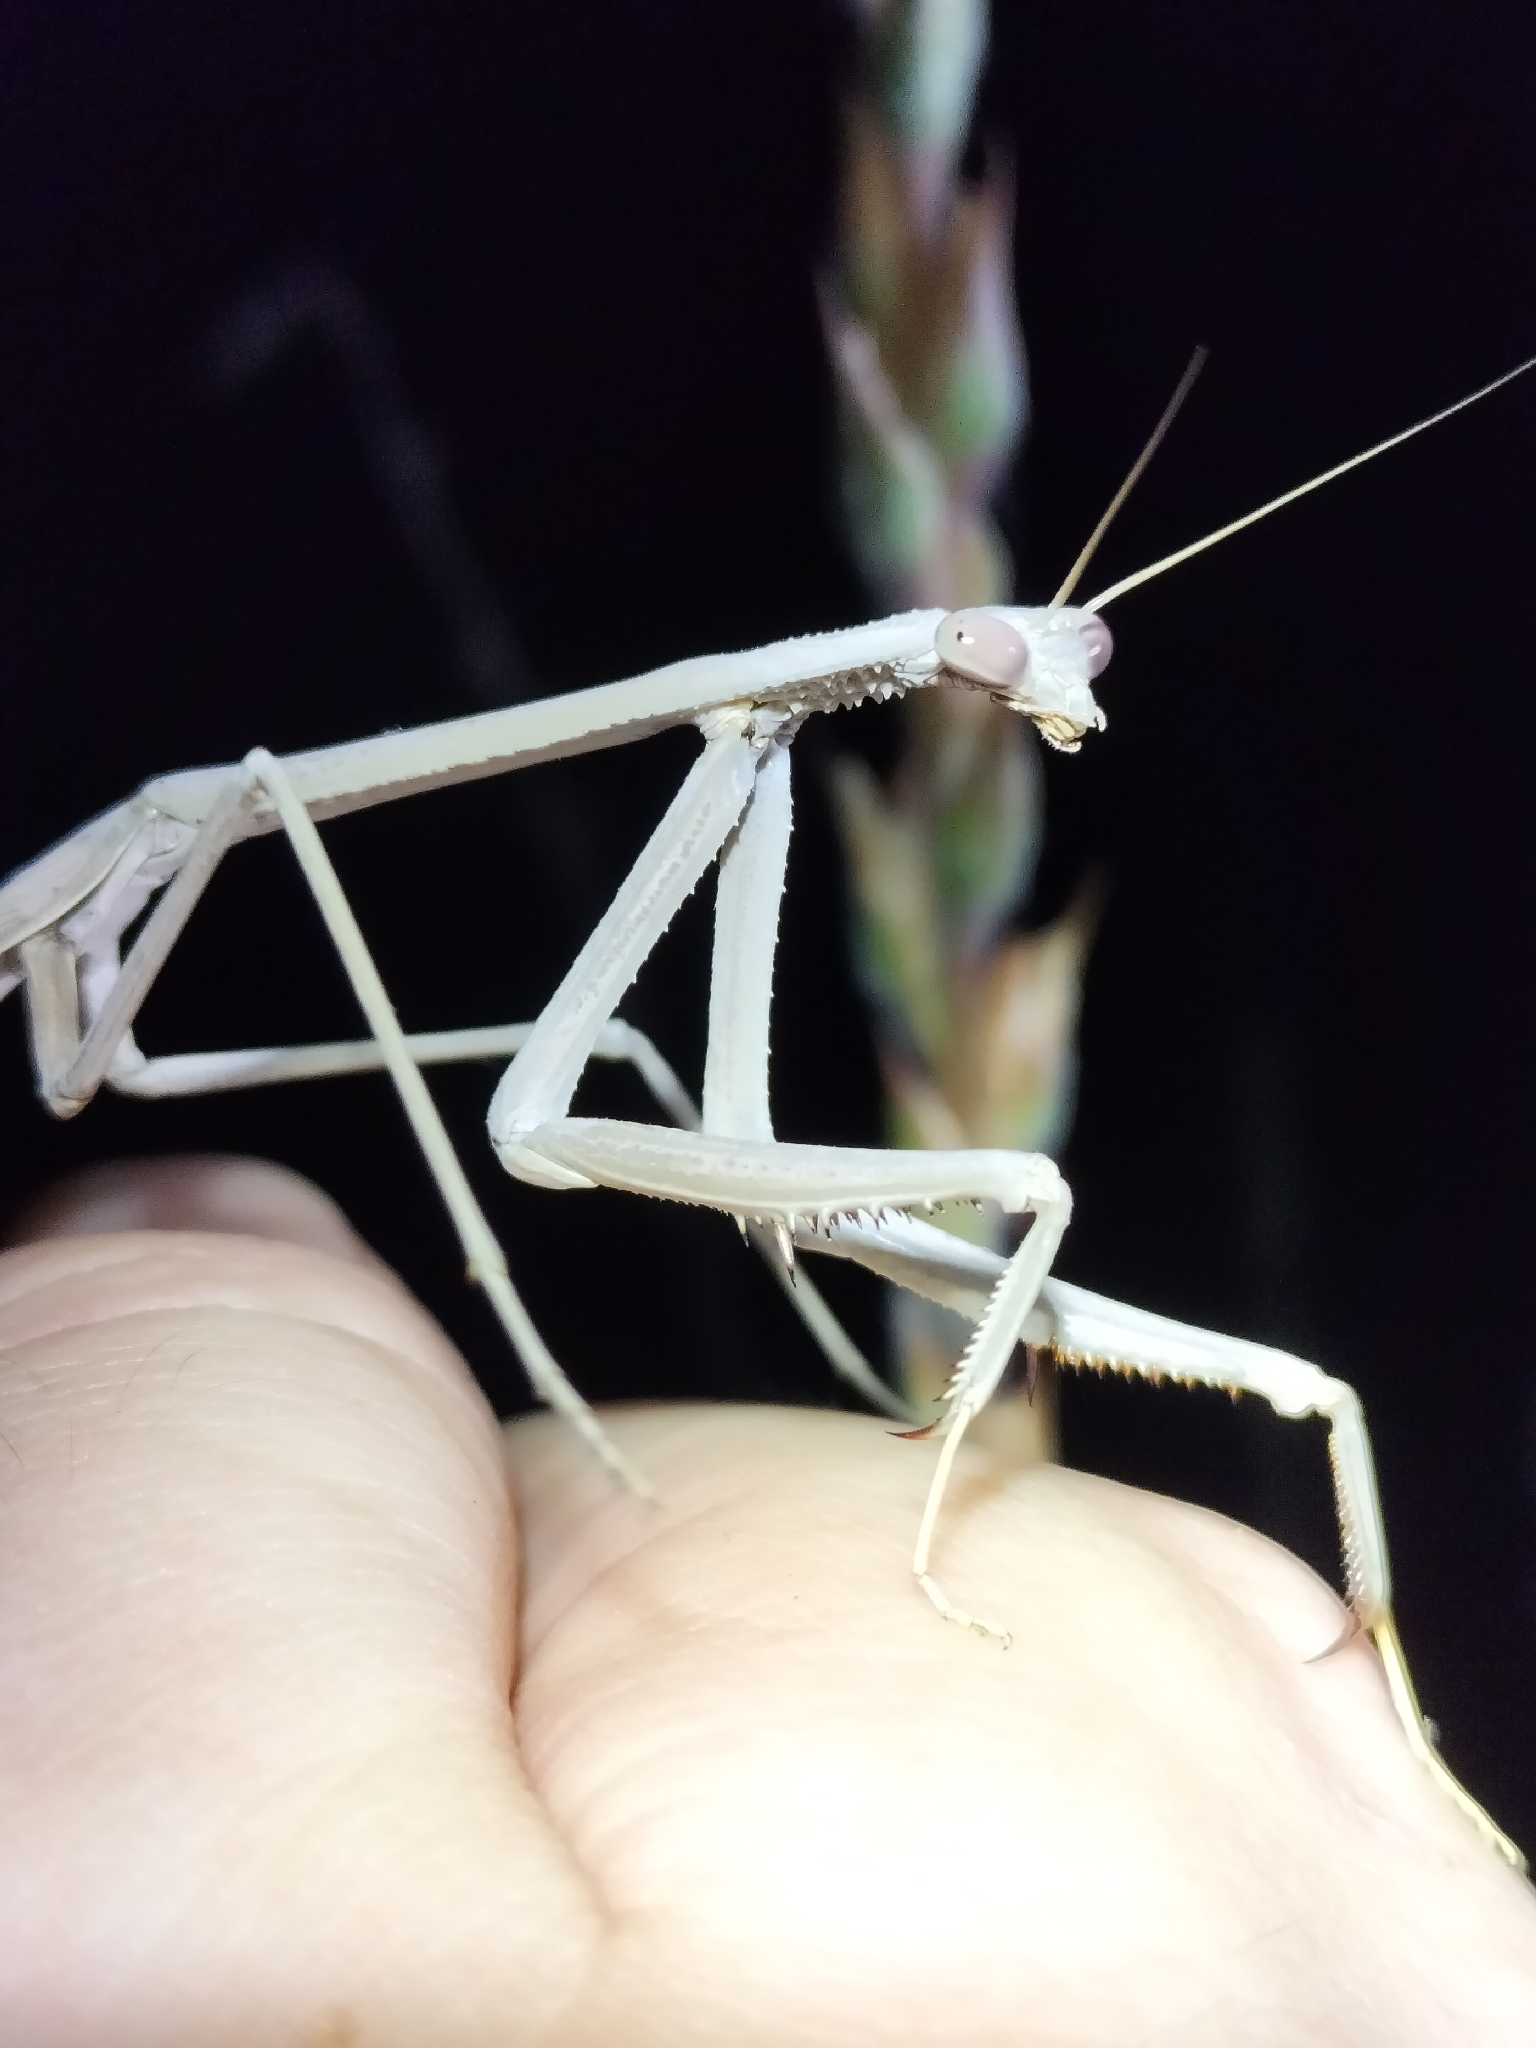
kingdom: Animalia
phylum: Arthropoda
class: Insecta
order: Mantodea
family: Mantidae
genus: Archimantis
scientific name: Archimantis monstrosa
